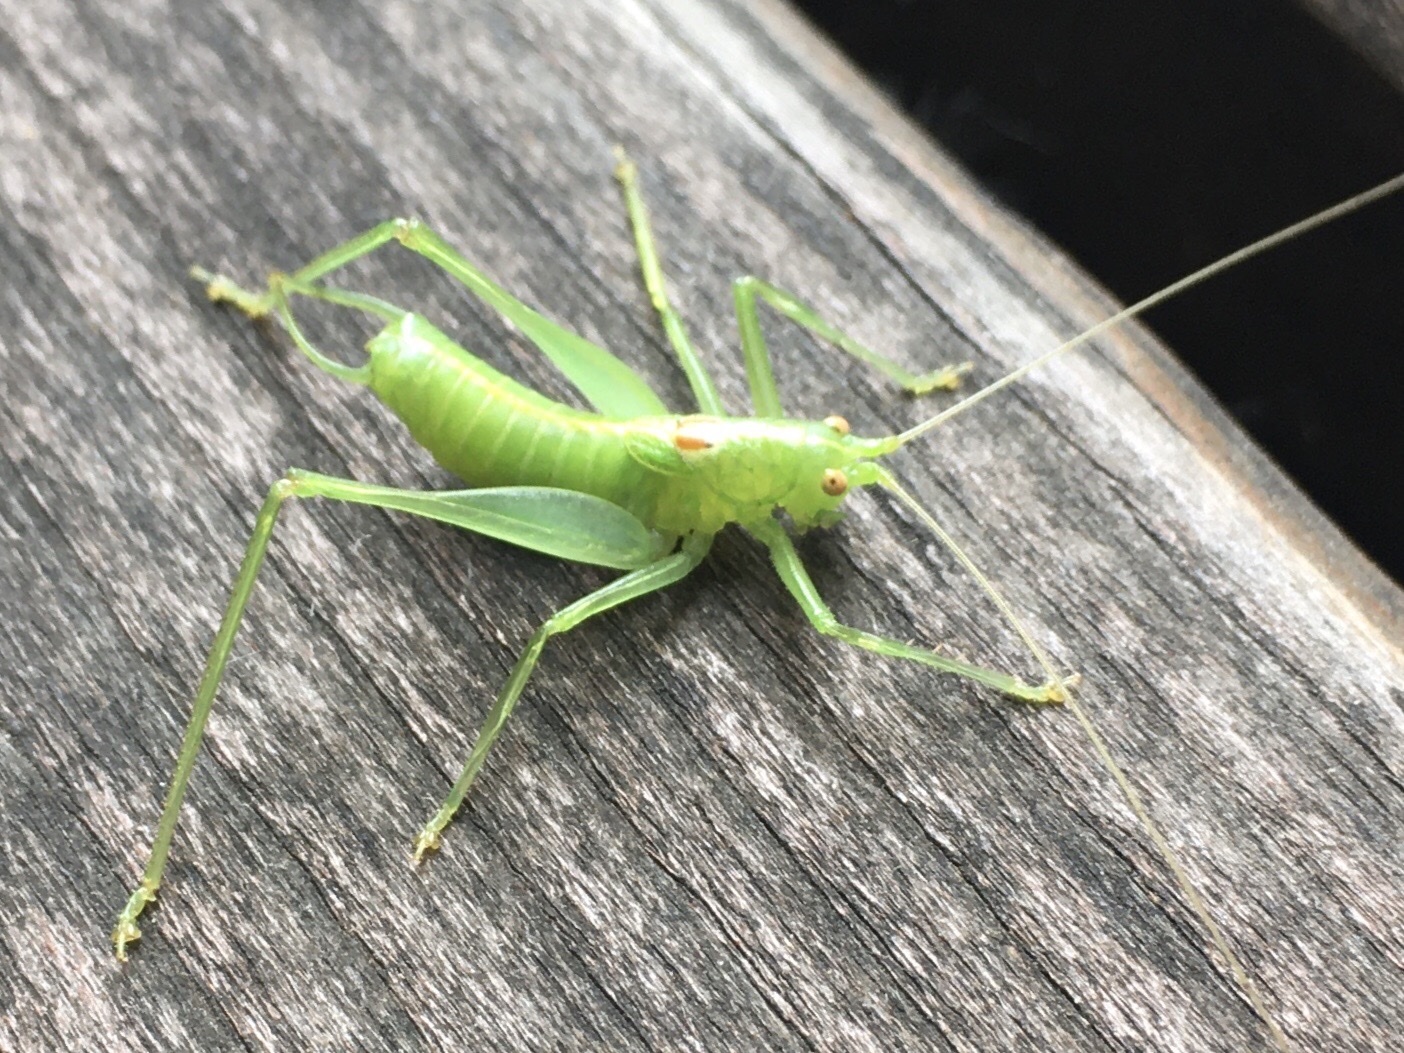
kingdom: Animalia
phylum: Arthropoda
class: Insecta
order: Orthoptera
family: Tettigoniidae
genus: Meconema
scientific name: Meconema meridionale
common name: Southern oak bush-cricket
